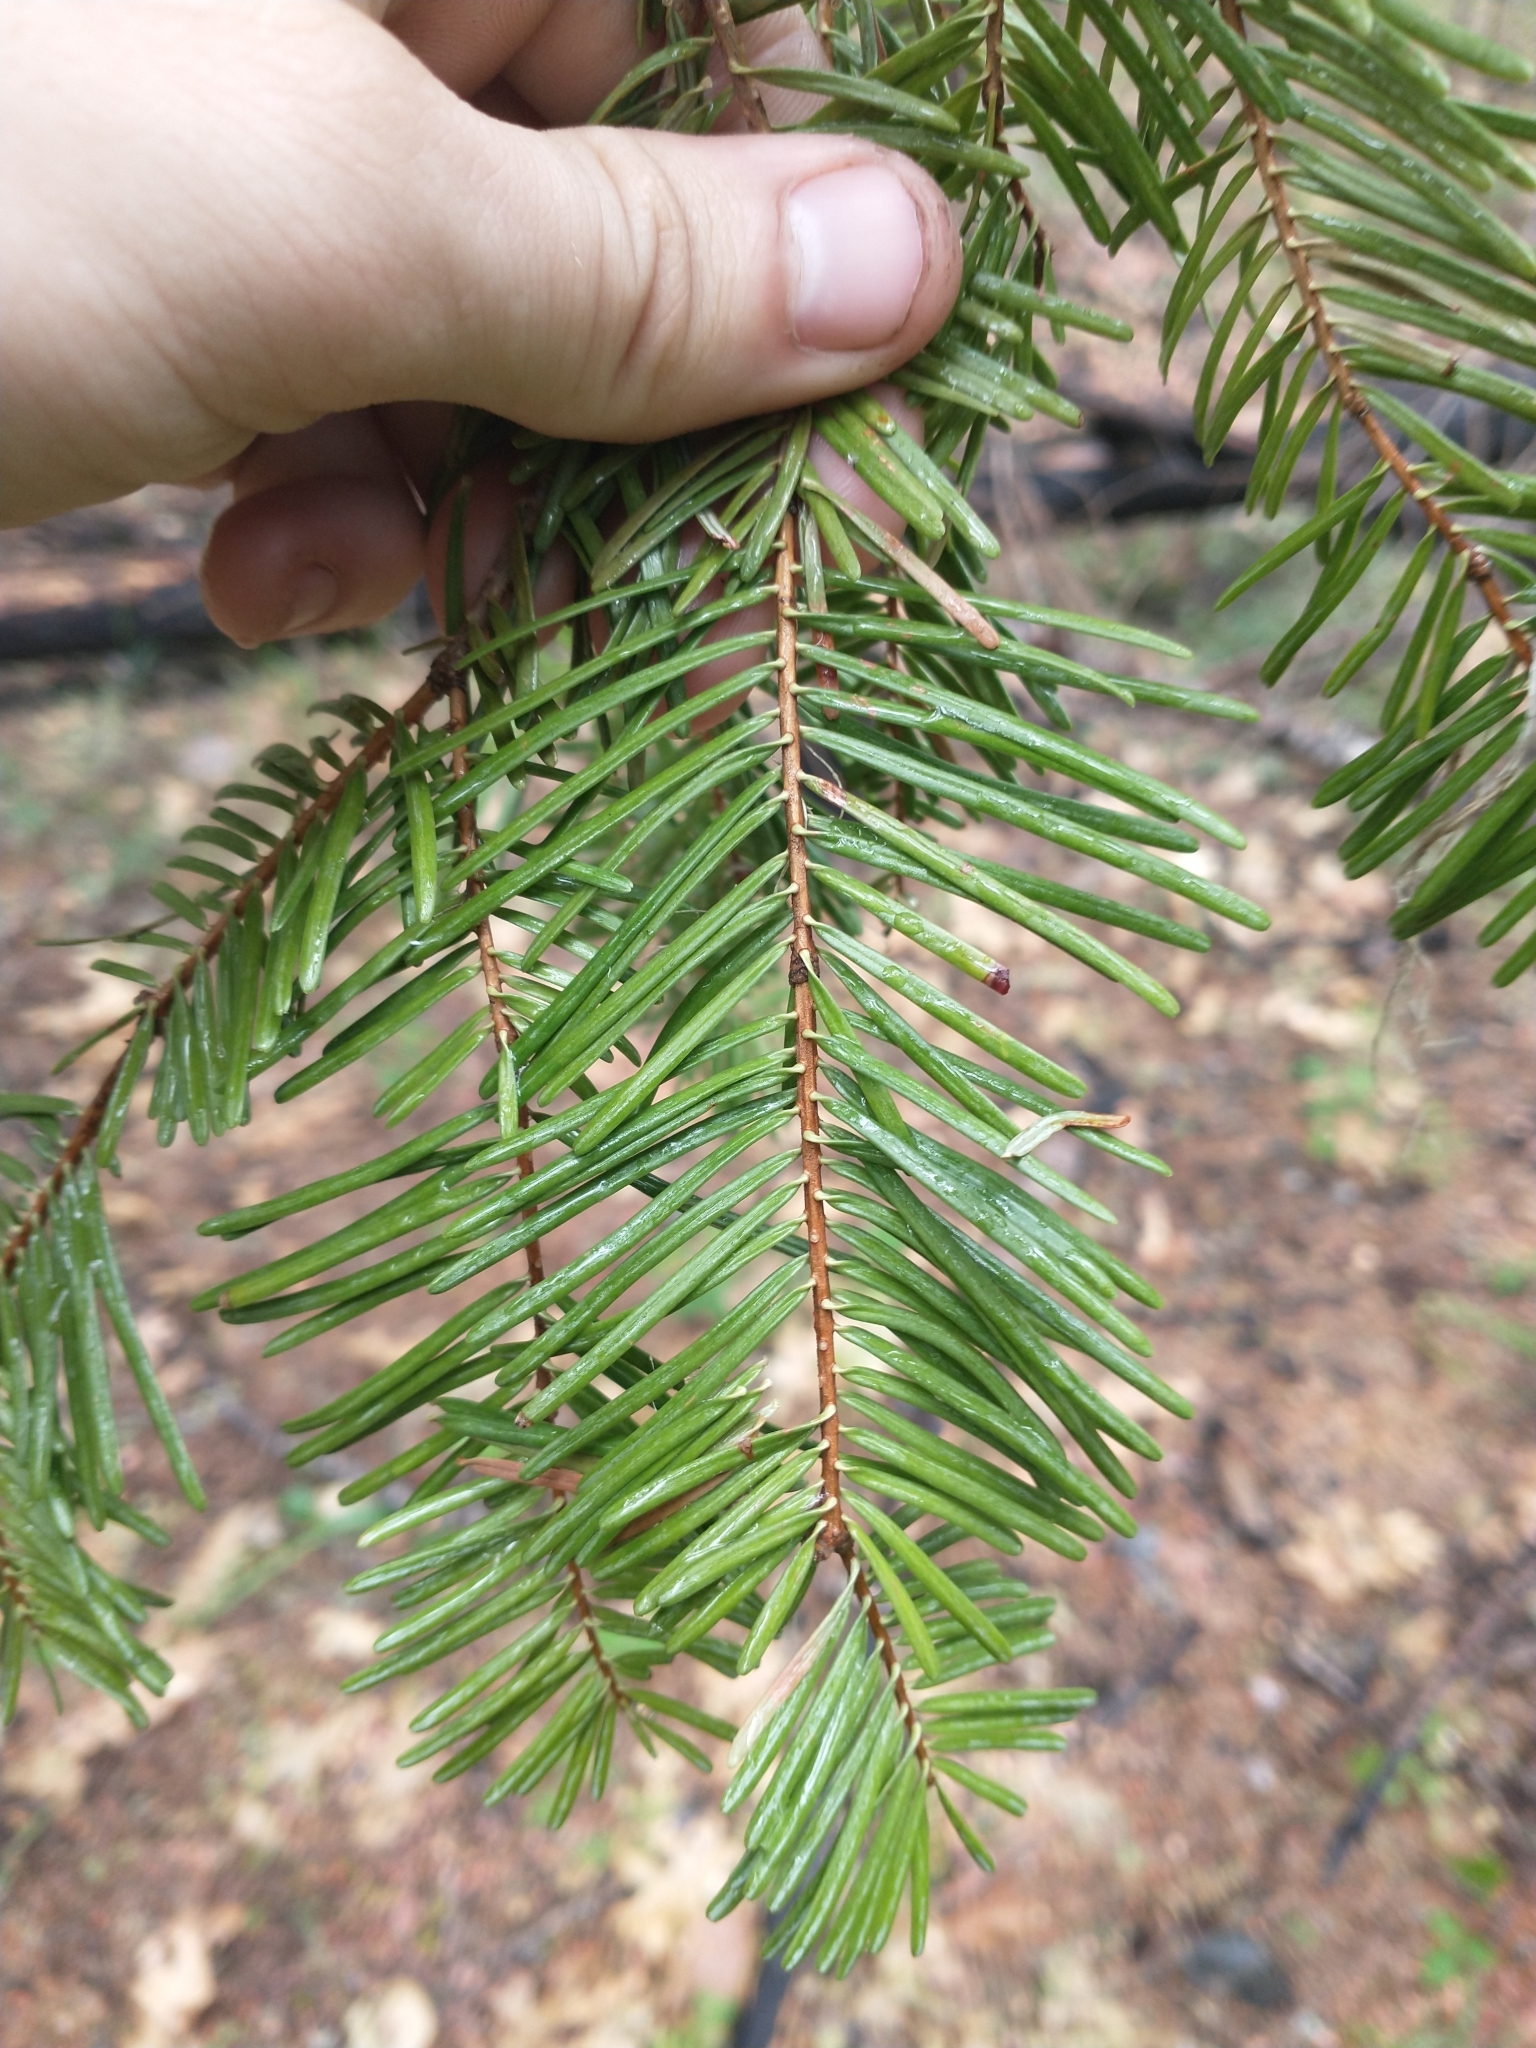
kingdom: Plantae
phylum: Tracheophyta
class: Pinopsida
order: Pinales
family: Pinaceae
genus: Abies
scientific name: Abies concolor
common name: Colorado fir
